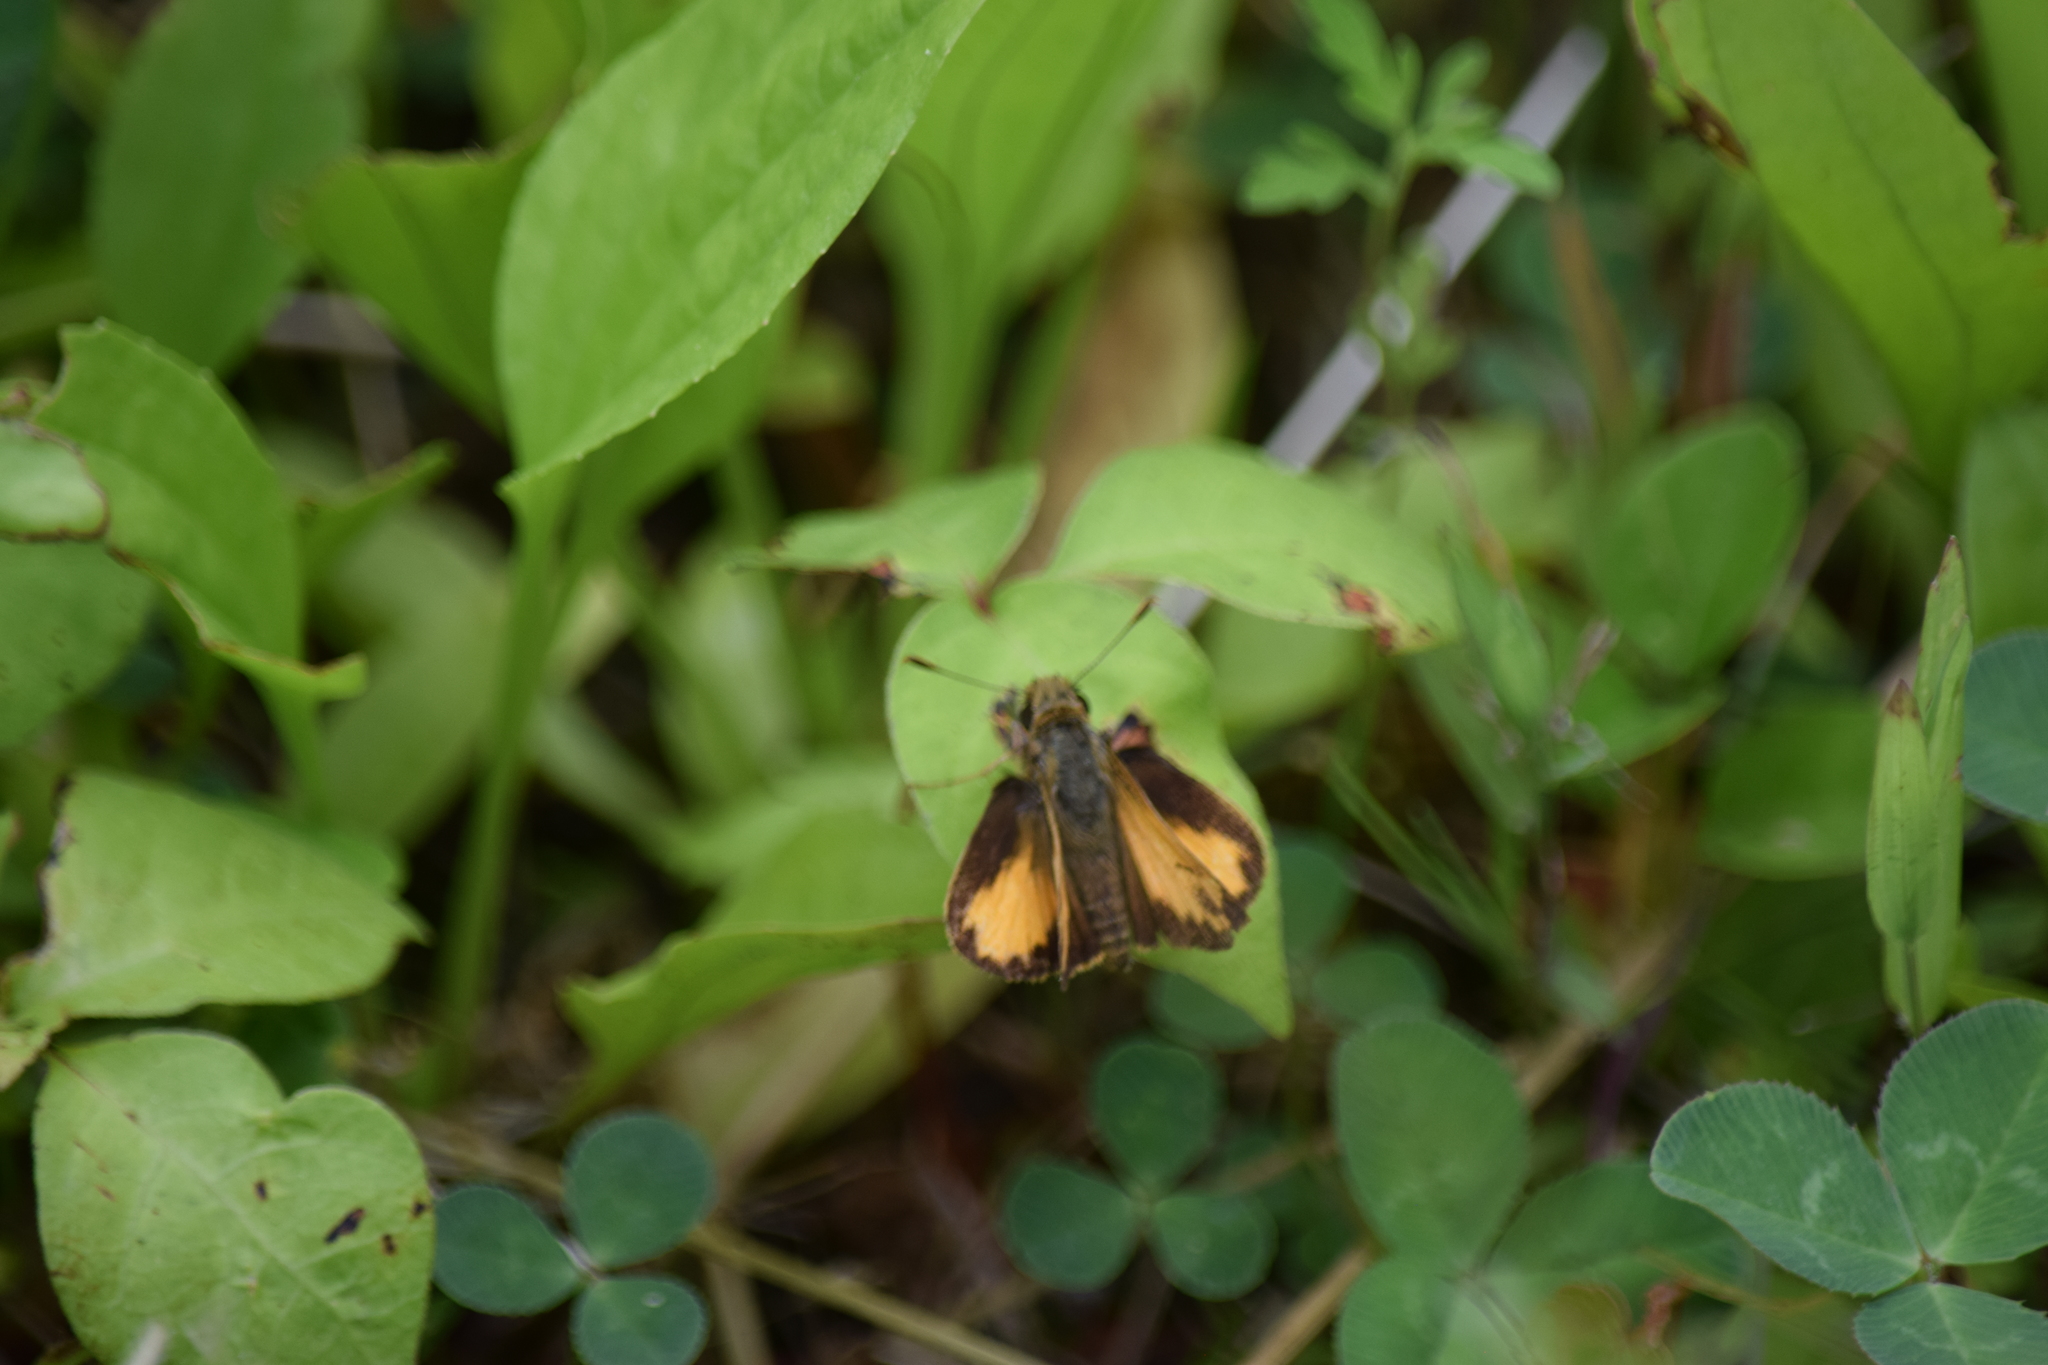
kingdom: Animalia
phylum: Arthropoda
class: Insecta
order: Lepidoptera
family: Hesperiidae
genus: Lon
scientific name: Lon zabulon
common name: Zabulon skipper
